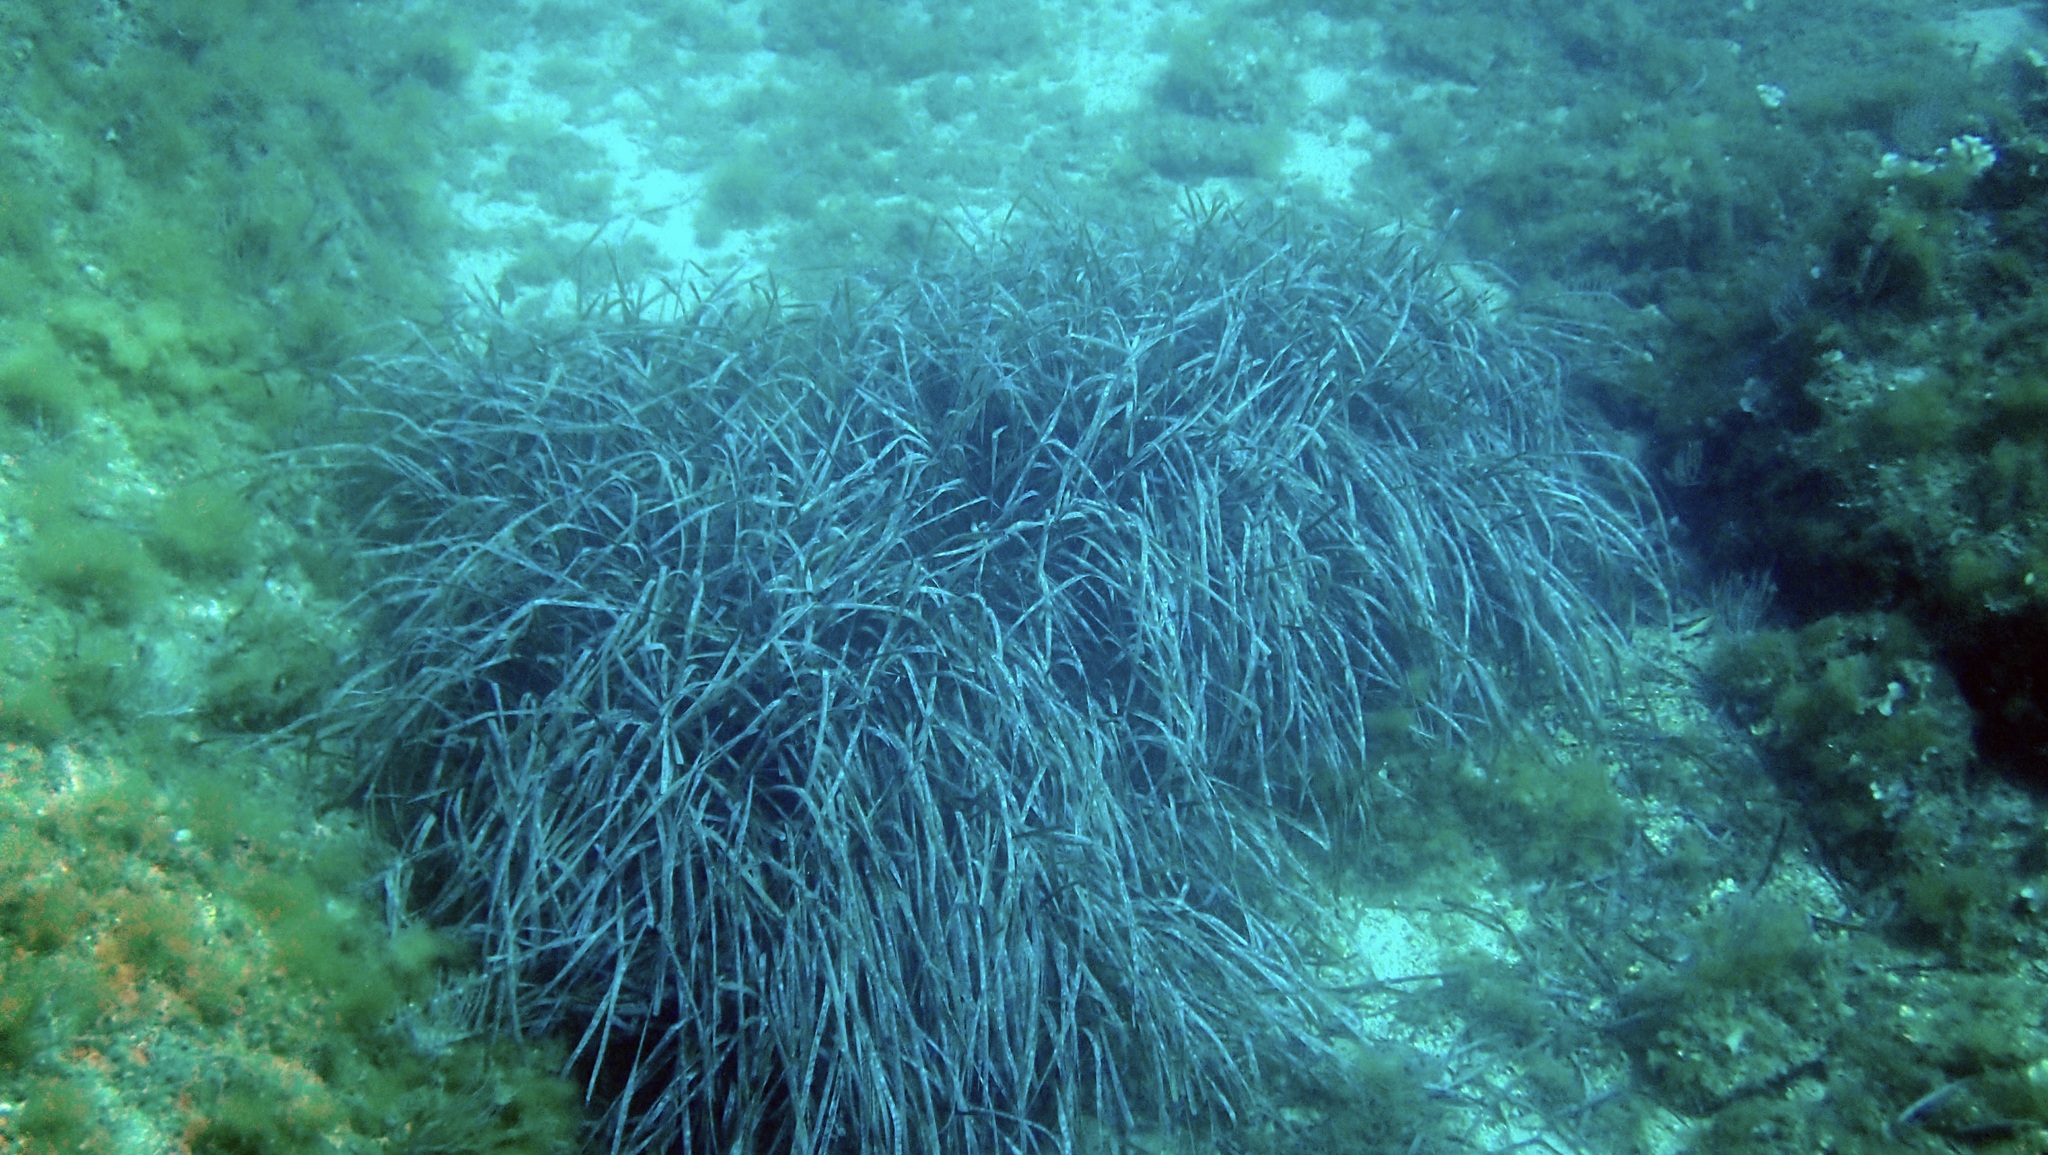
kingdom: Plantae
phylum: Tracheophyta
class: Liliopsida
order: Alismatales
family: Posidoniaceae
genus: Posidonia
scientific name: Posidonia oceanica
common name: Mediterranean tapeweed
